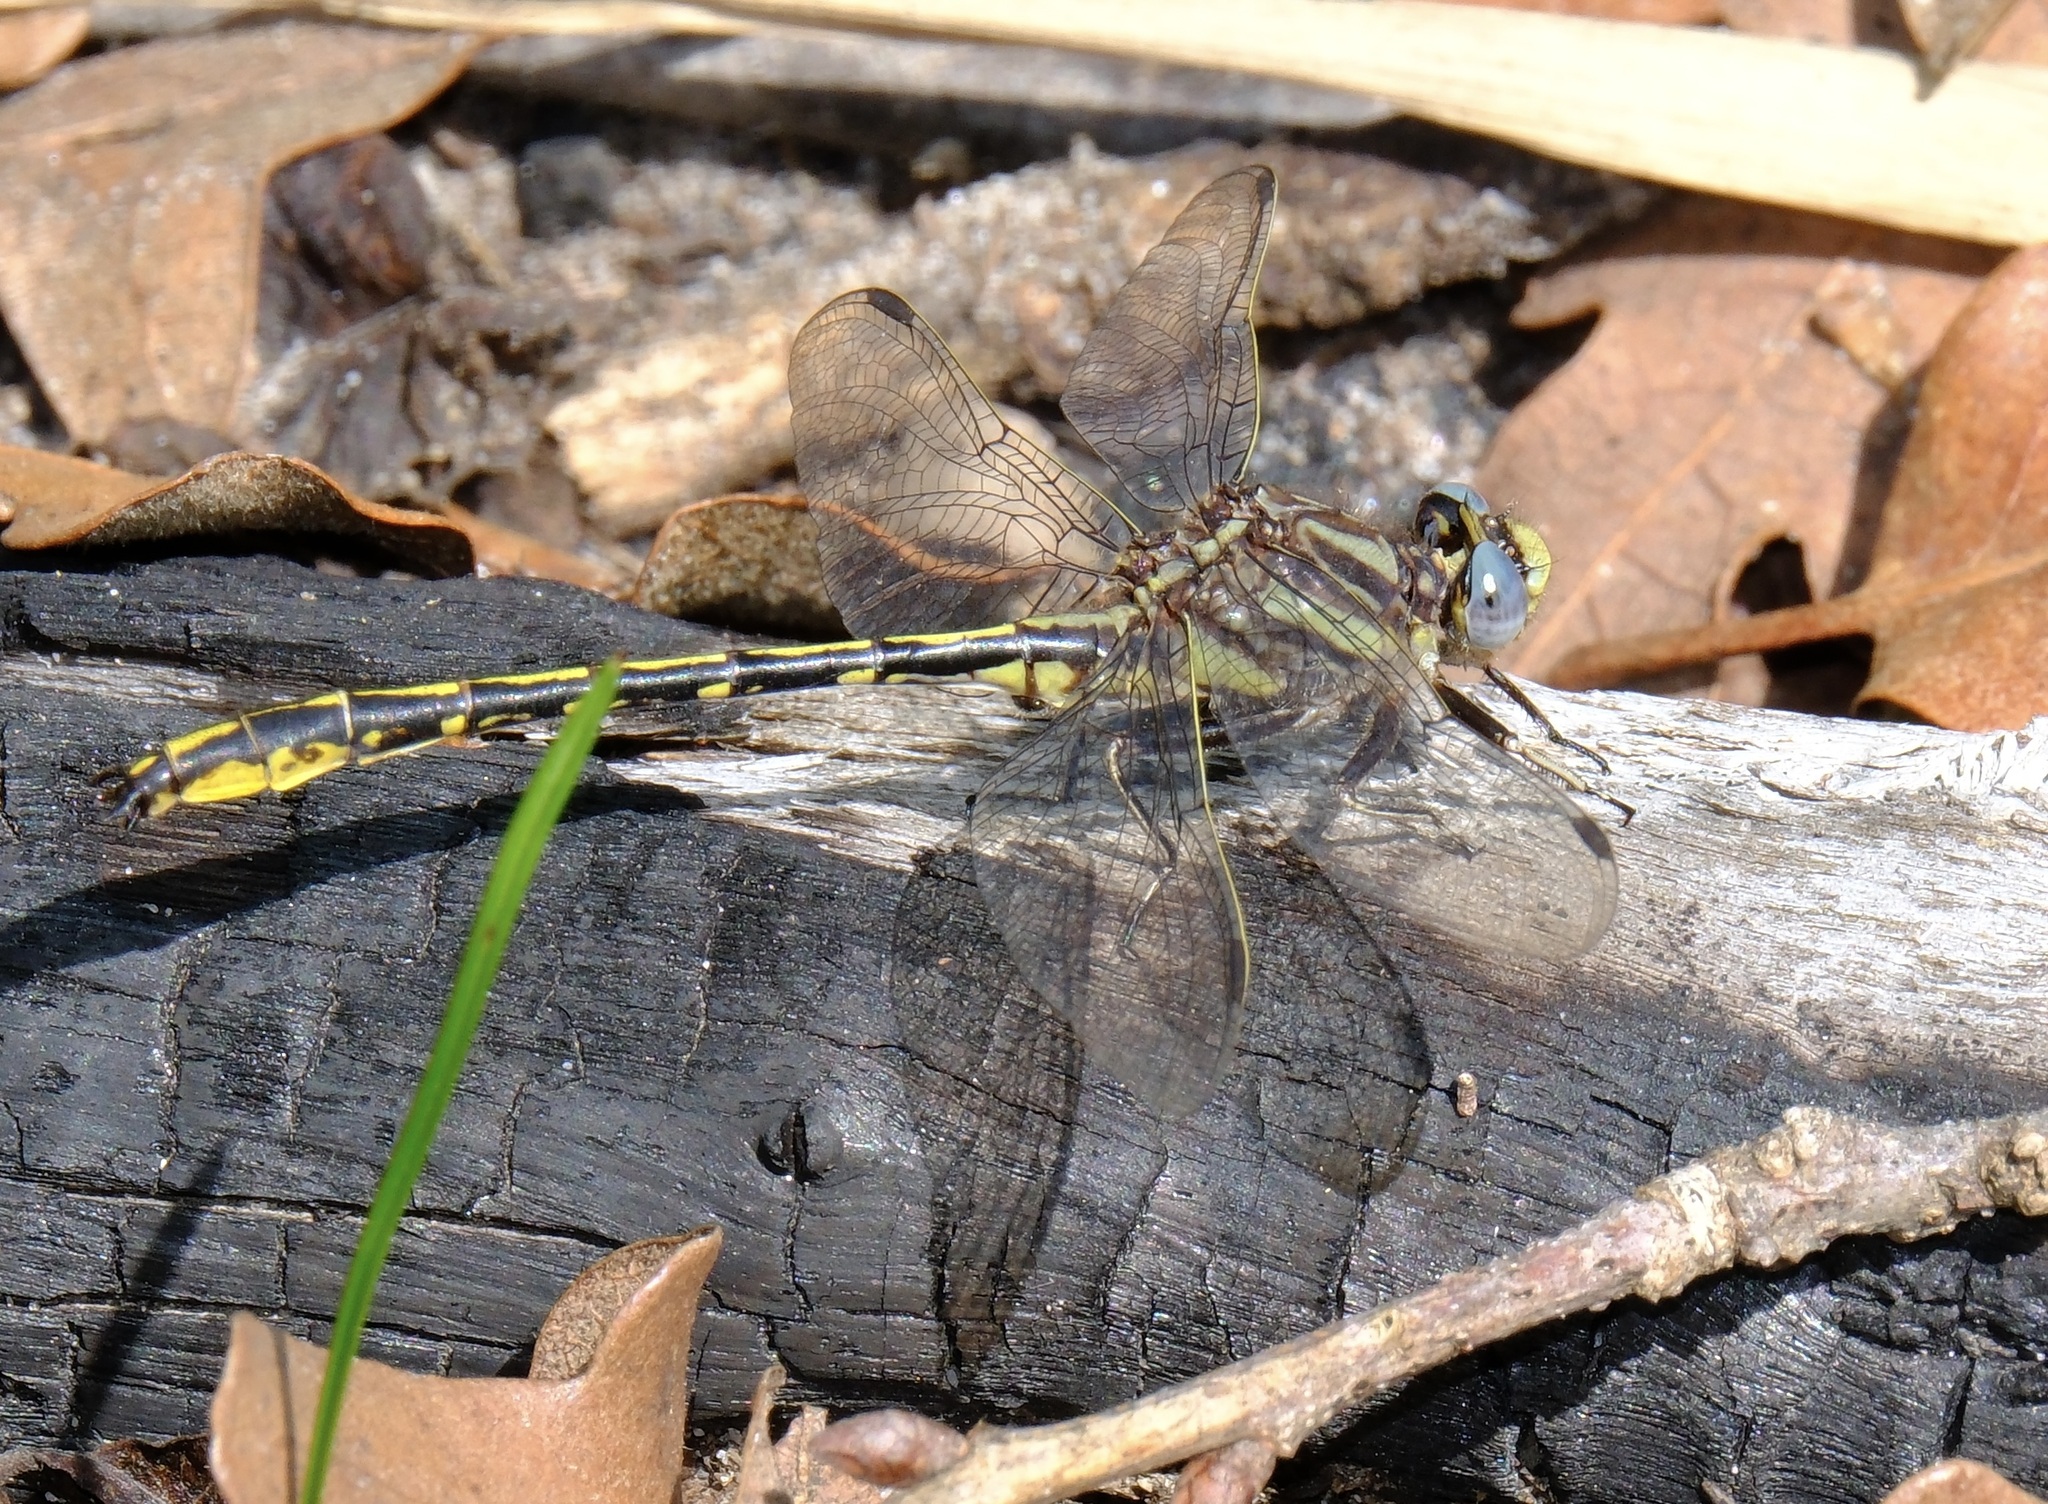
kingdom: Animalia
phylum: Arthropoda
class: Insecta
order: Odonata
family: Gomphidae
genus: Phanogomphus
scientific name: Phanogomphus oklahomensis
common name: Oklahoma clubtail
